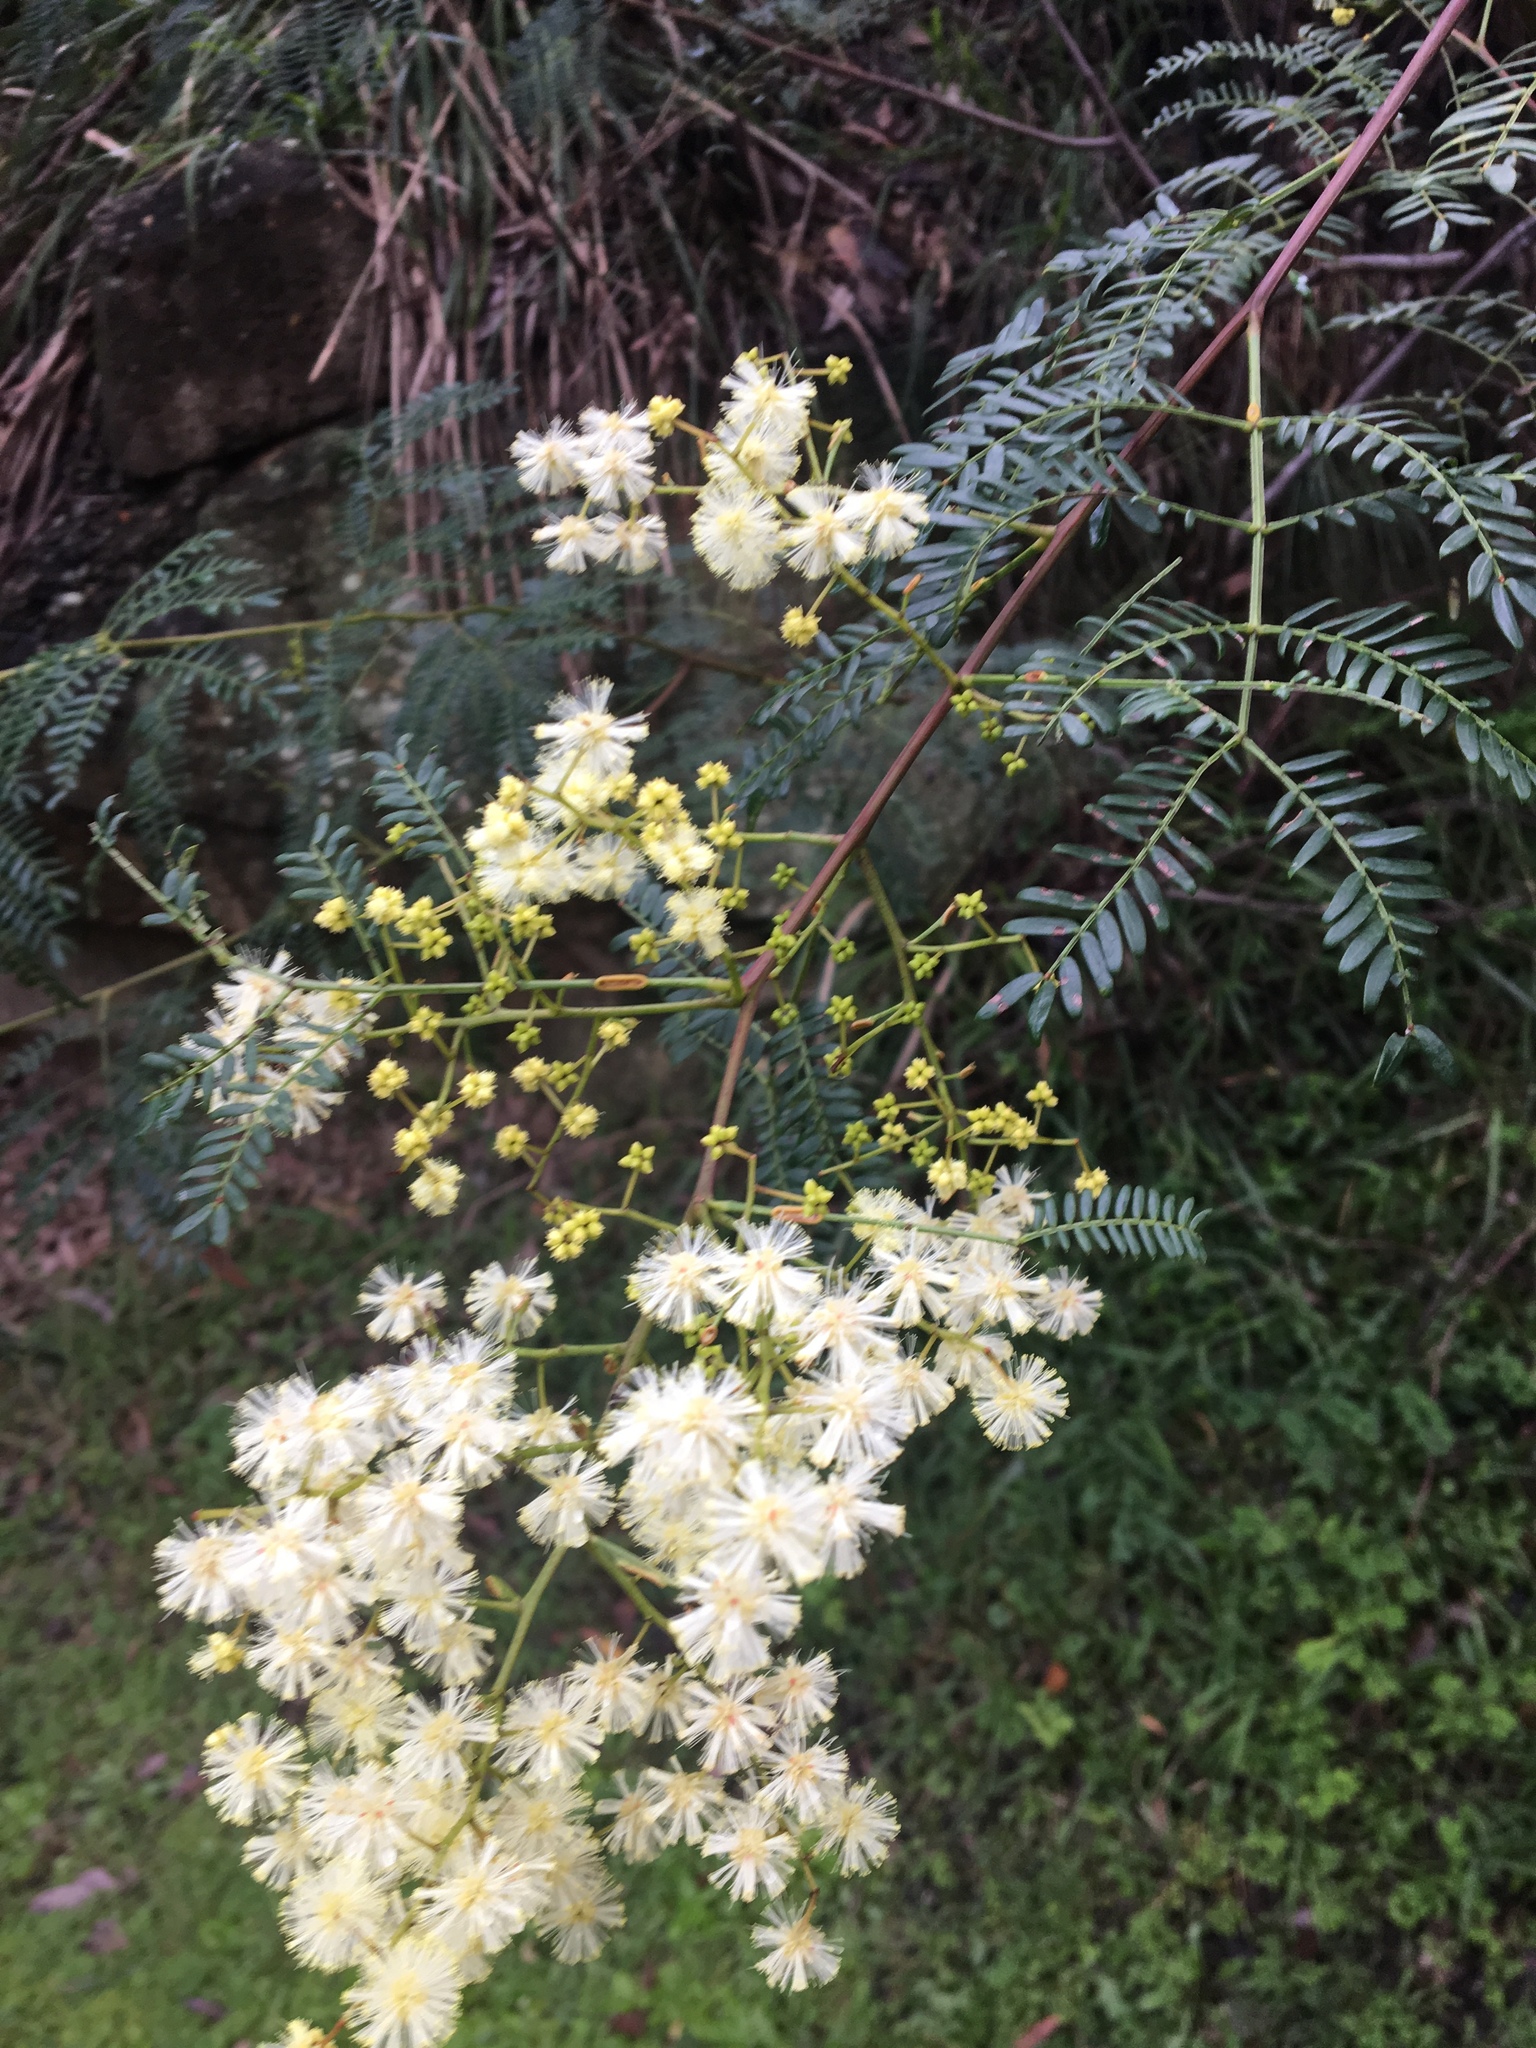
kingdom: Plantae
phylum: Tracheophyta
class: Magnoliopsida
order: Fabales
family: Fabaceae
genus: Acacia
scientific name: Acacia terminalis
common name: Cedar wattle
